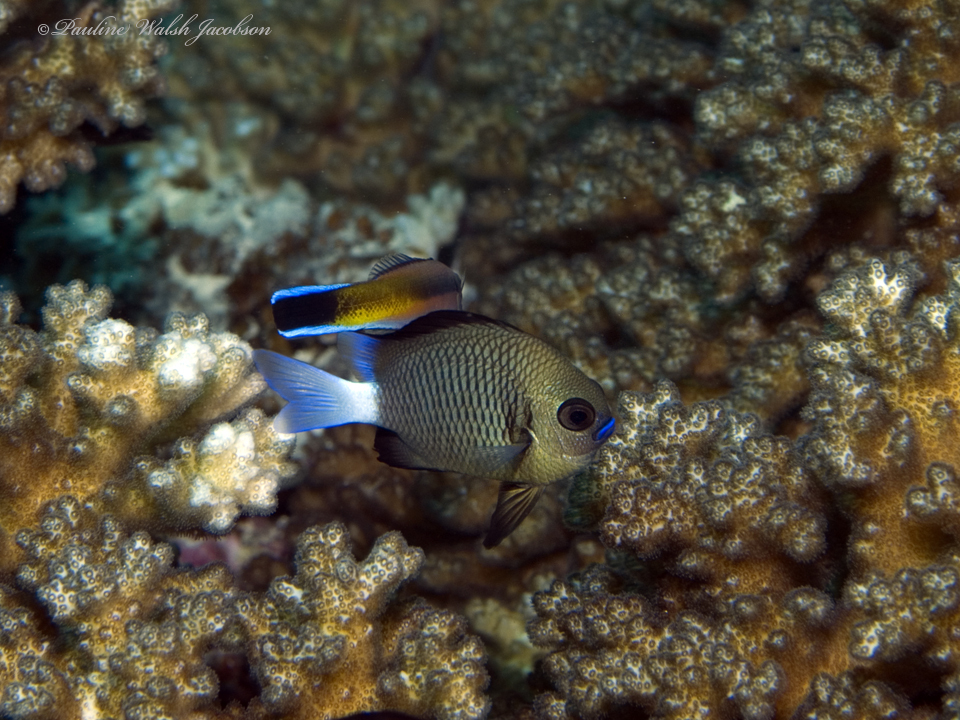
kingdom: Animalia
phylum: Chordata
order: Perciformes
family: Pomacentridae
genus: Dascyllus
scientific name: Dascyllus reticulatus
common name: Reticulated dascyllus
